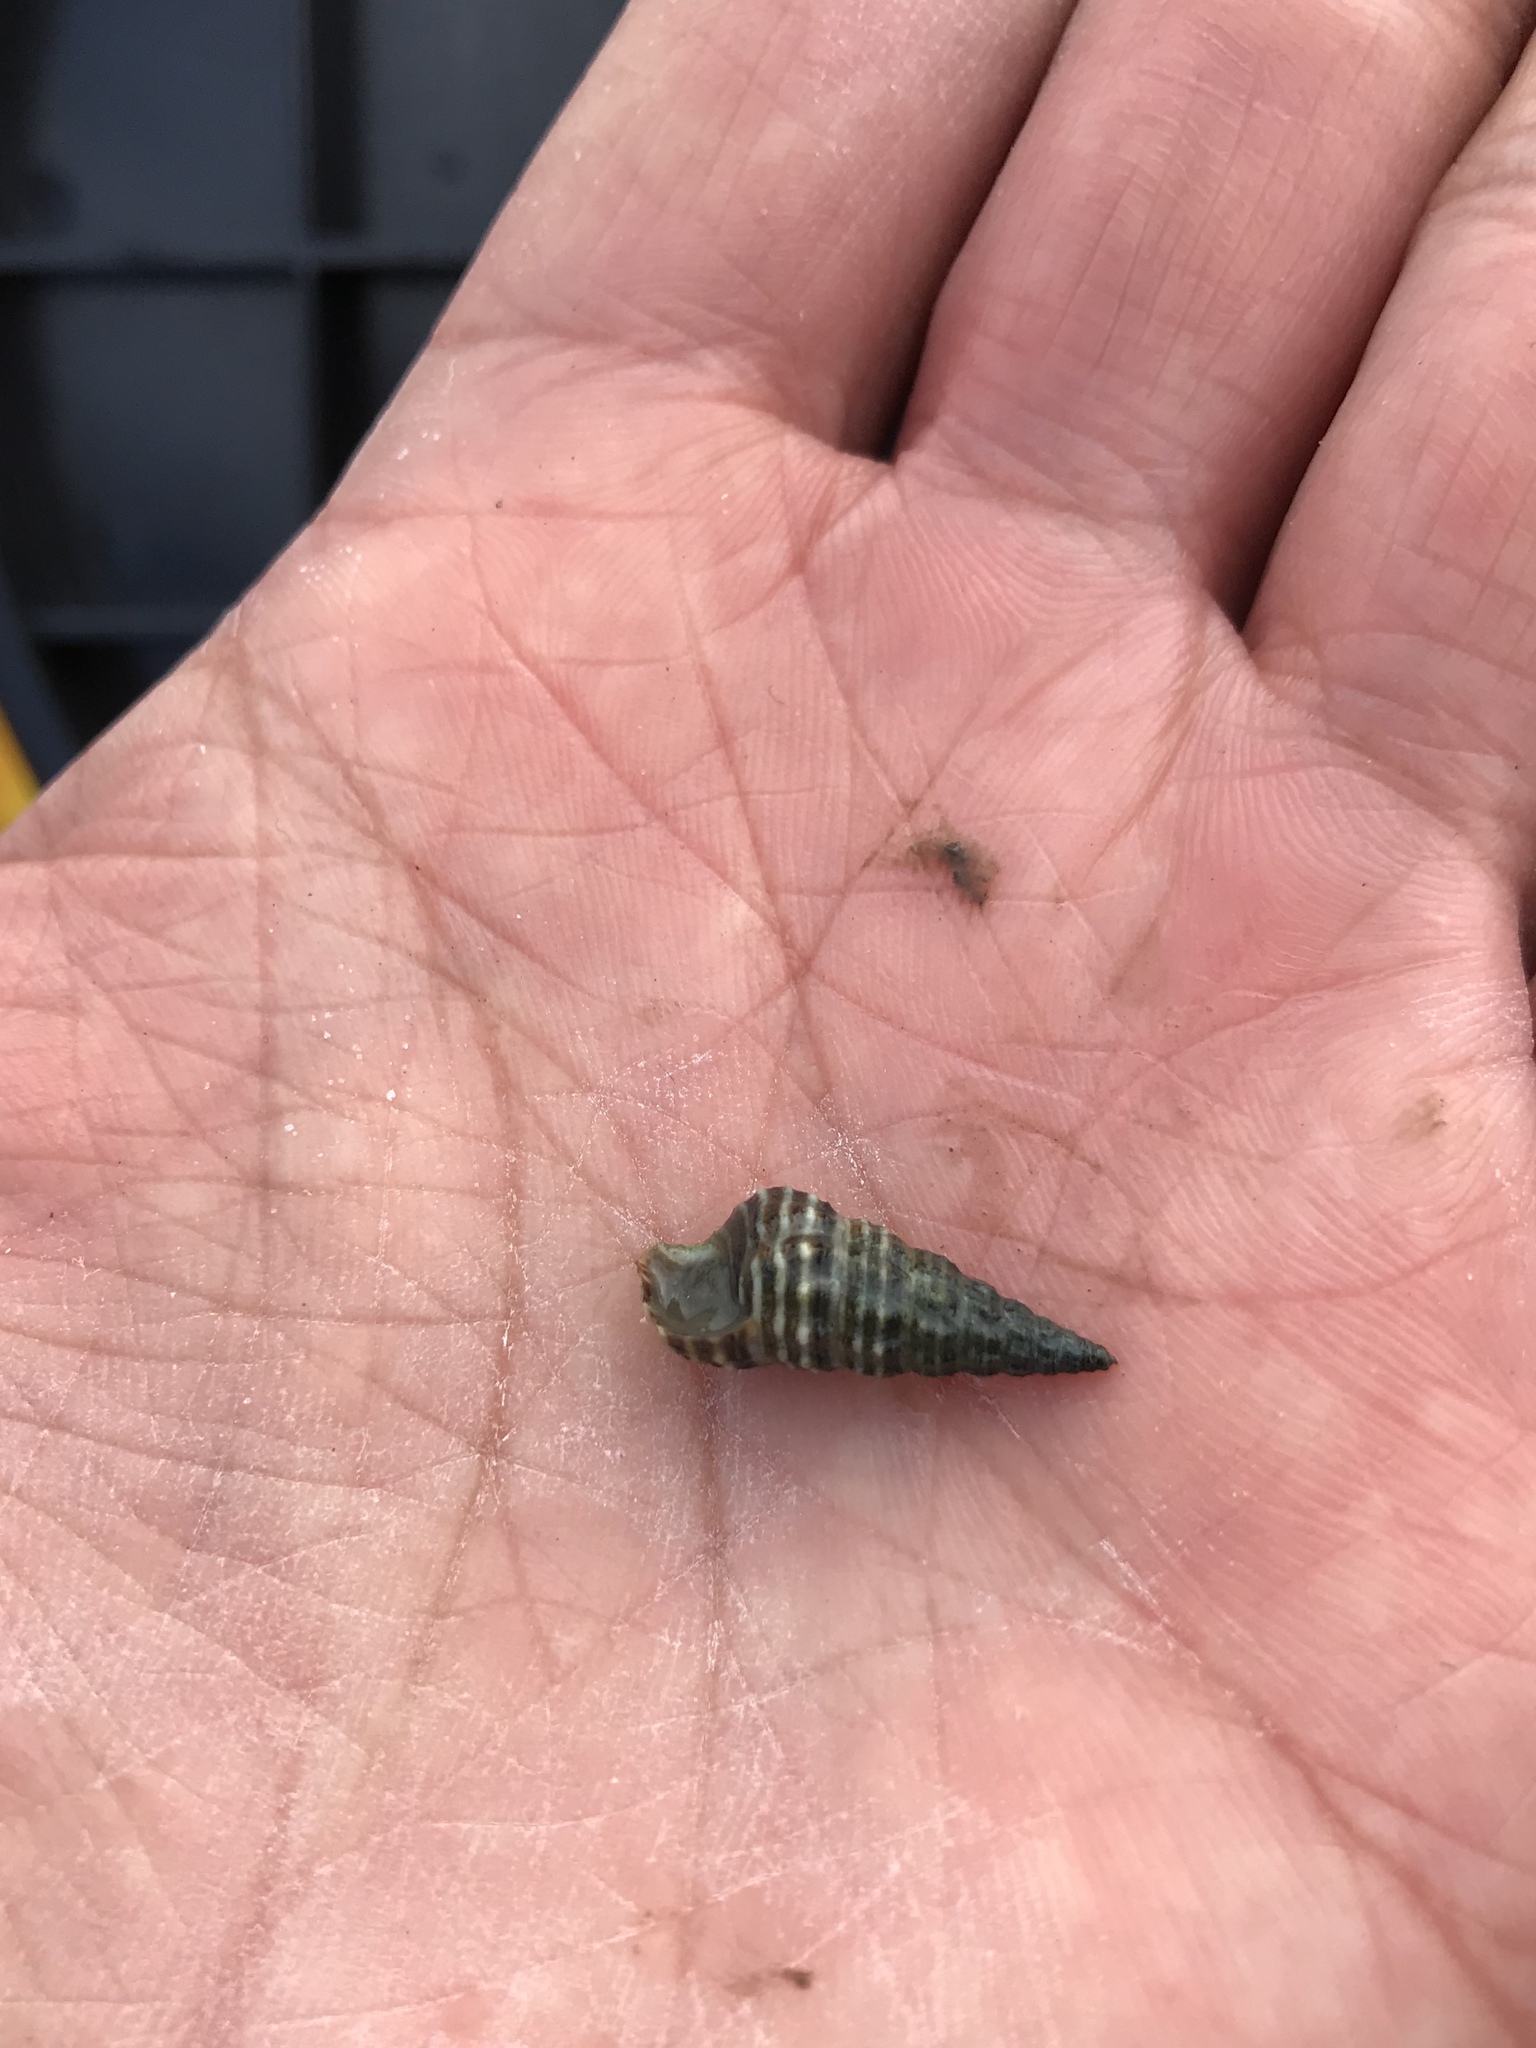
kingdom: Animalia
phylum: Mollusca
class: Gastropoda
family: Batillariidae
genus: Batillaria
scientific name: Batillaria attramentaria
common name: Japanese false cerith
